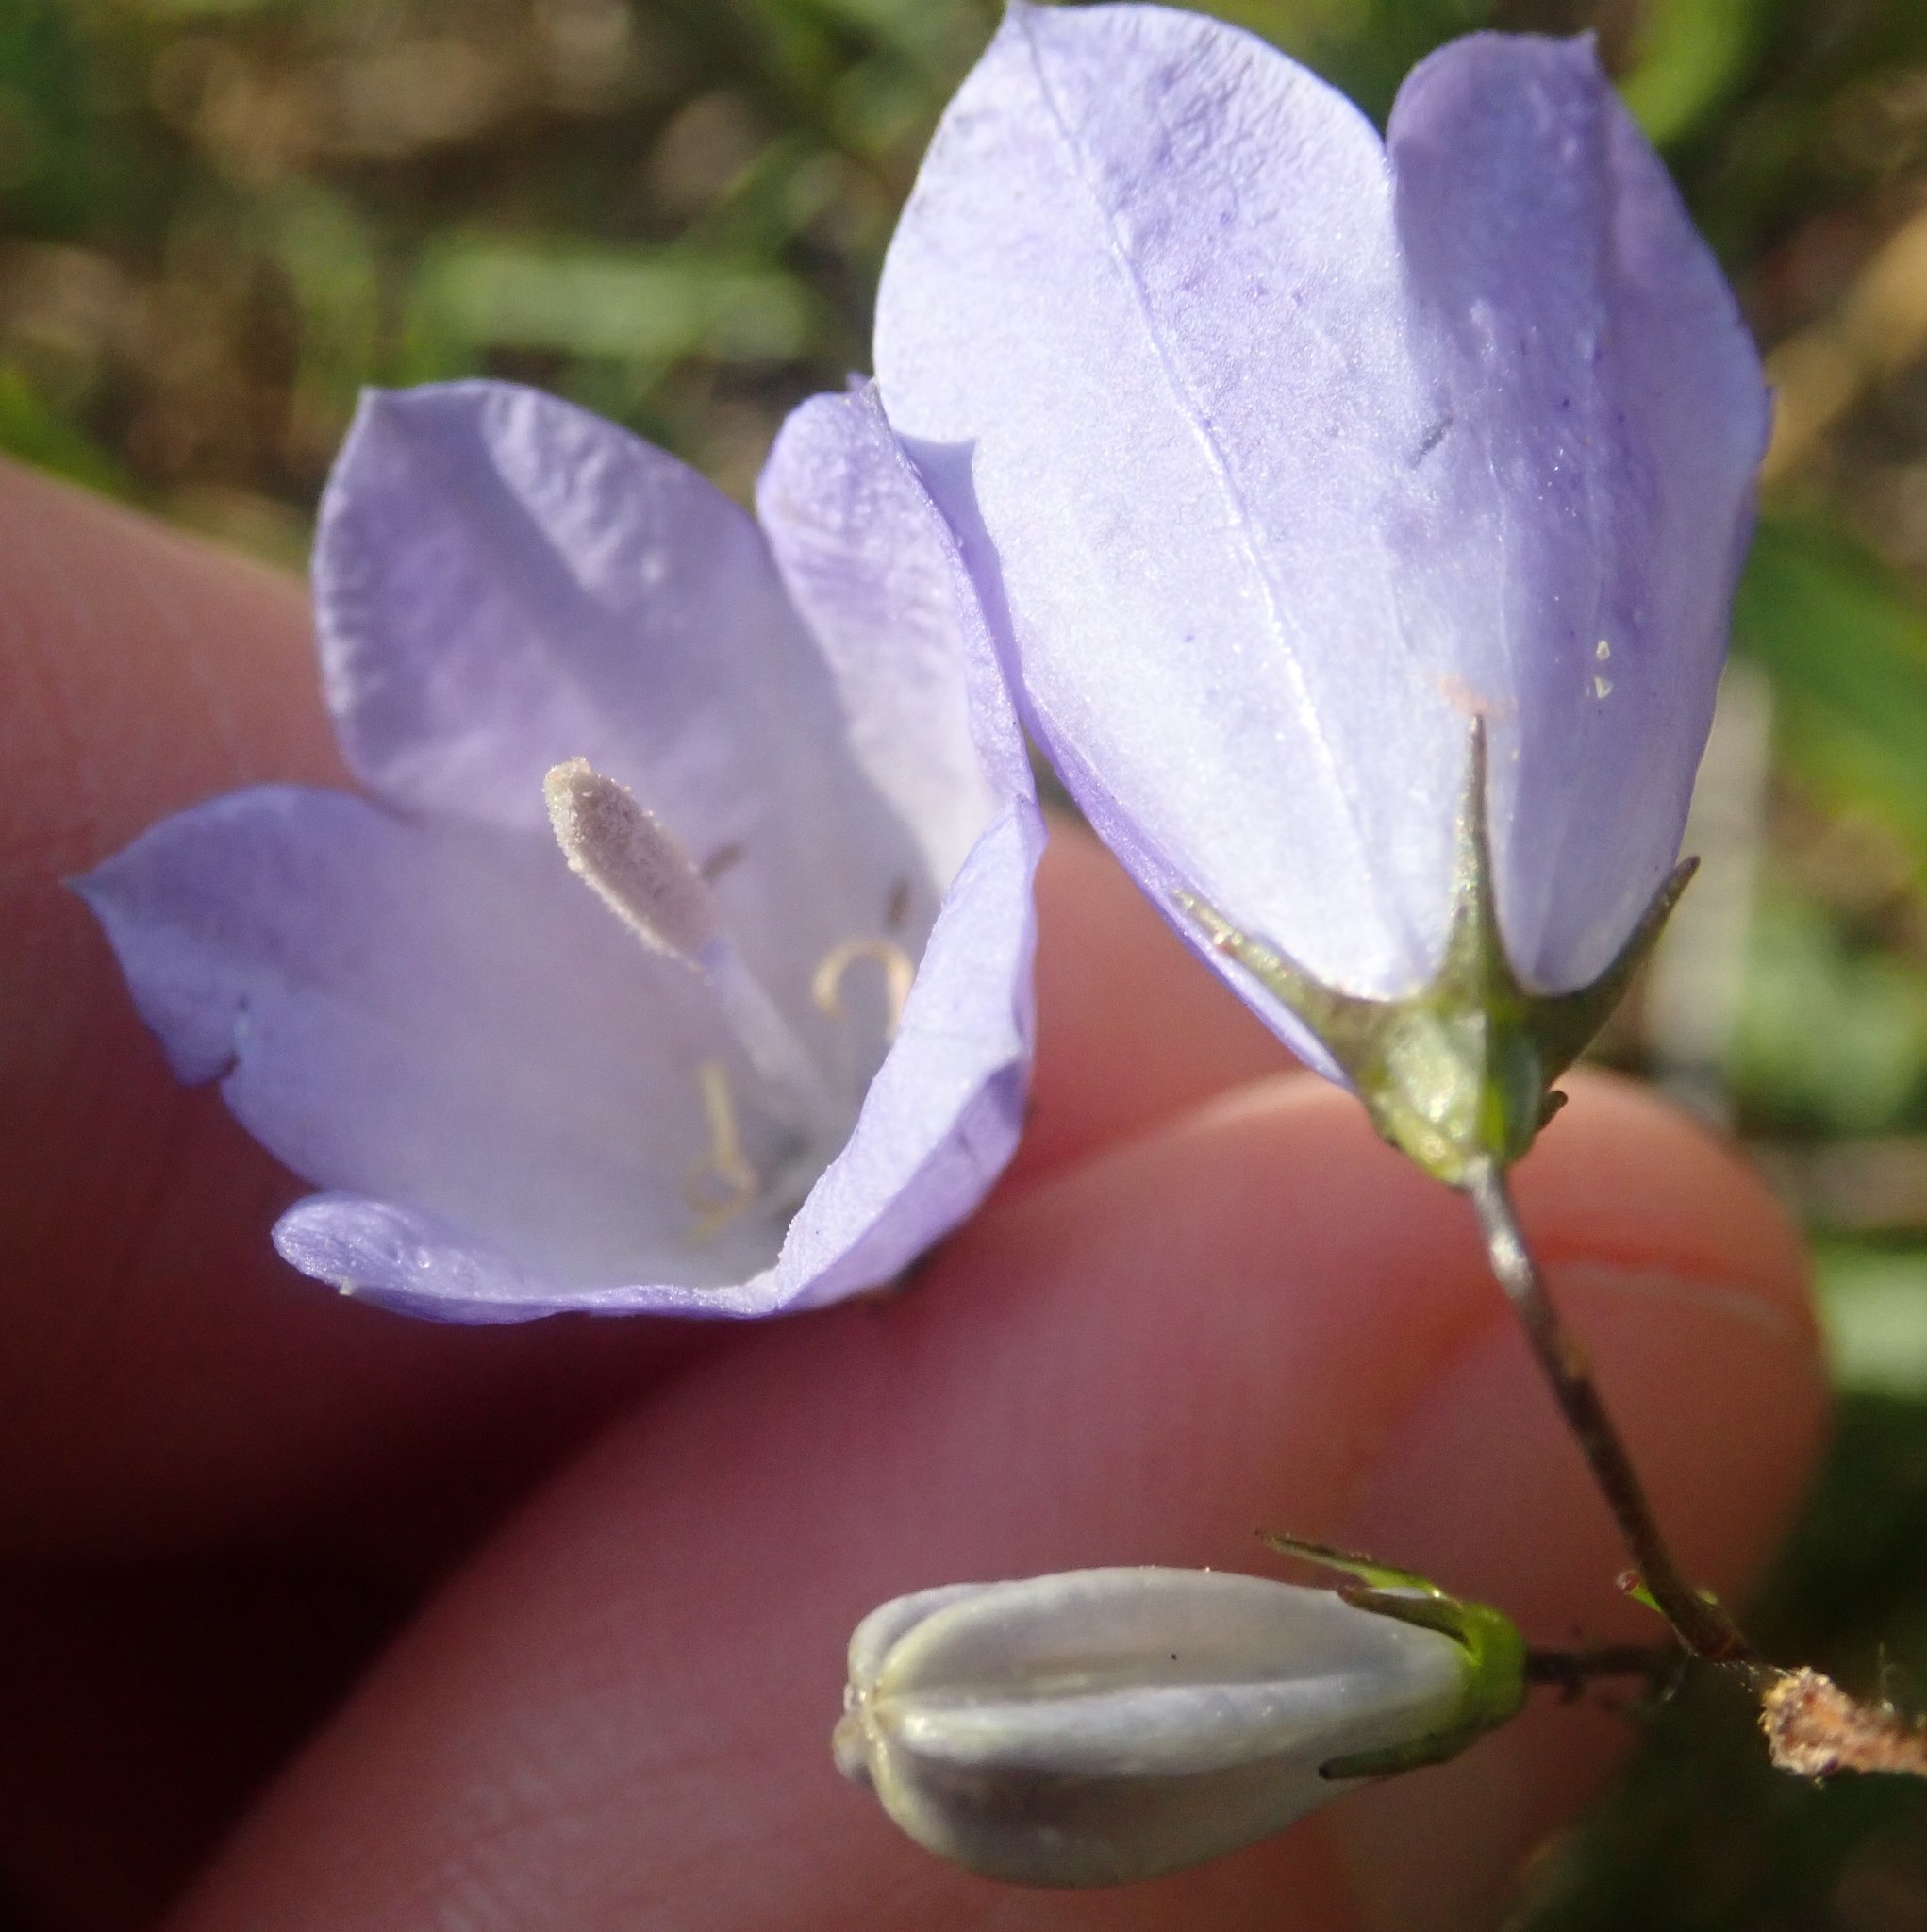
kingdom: Plantae
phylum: Tracheophyta
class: Magnoliopsida
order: Asterales
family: Campanulaceae
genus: Campanula
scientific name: Campanula rotundifolia
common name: Harebell
